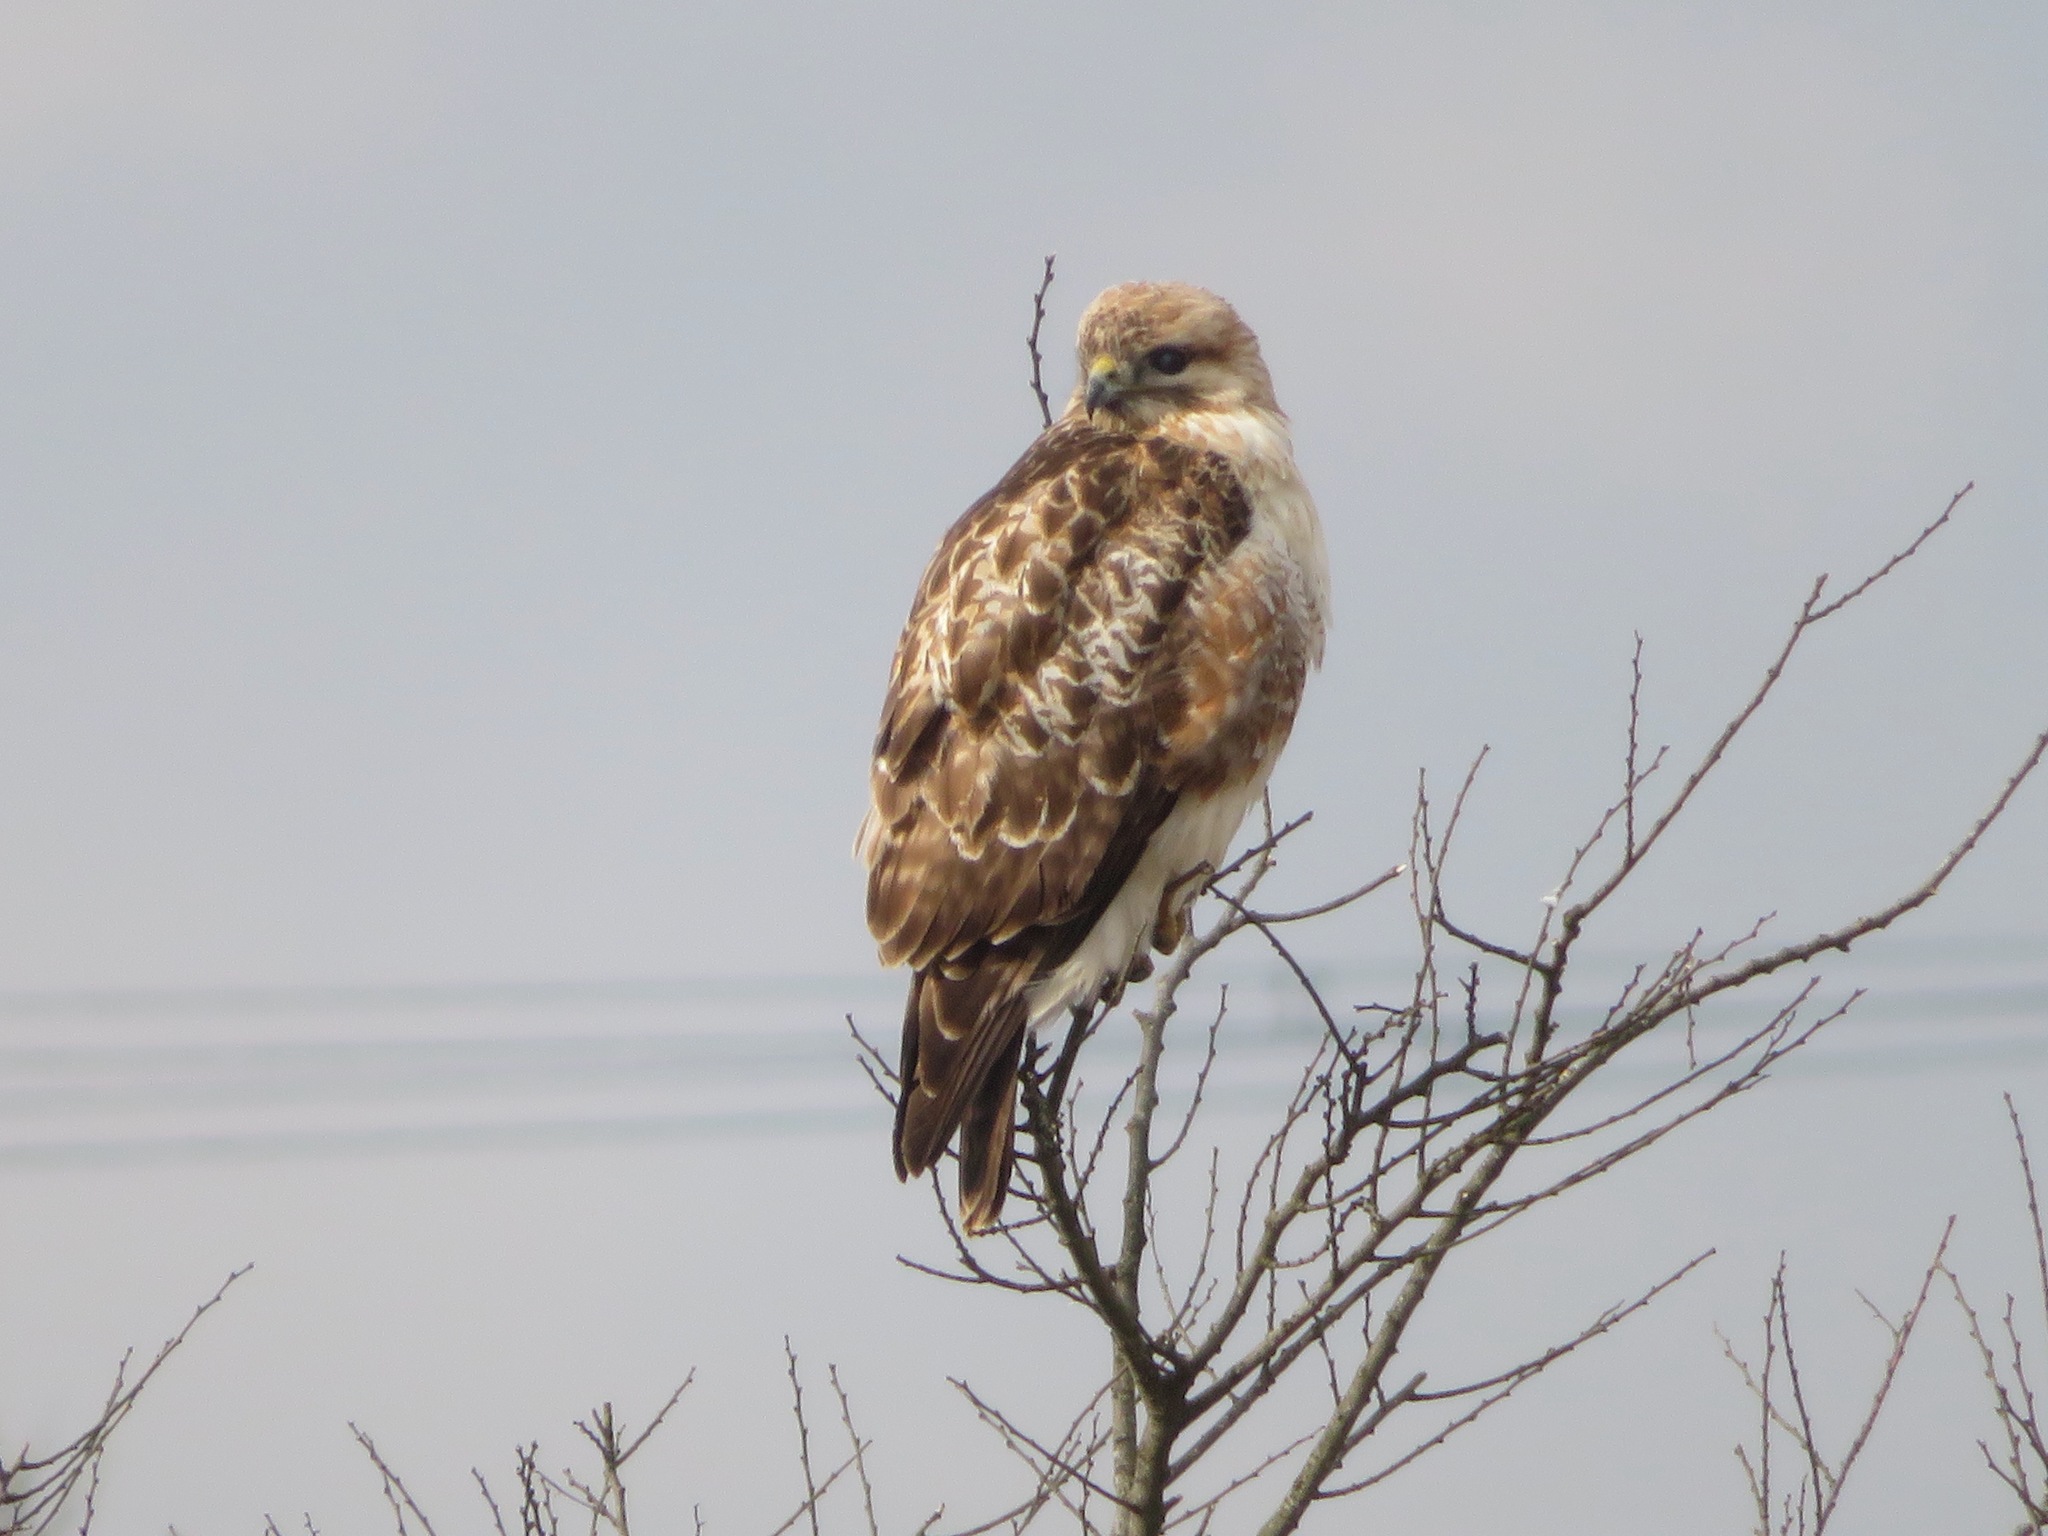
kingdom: Animalia
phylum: Chordata
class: Aves
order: Accipitriformes
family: Accipitridae
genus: Buteo
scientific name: Buteo japonicus
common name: Eastern buzzard
